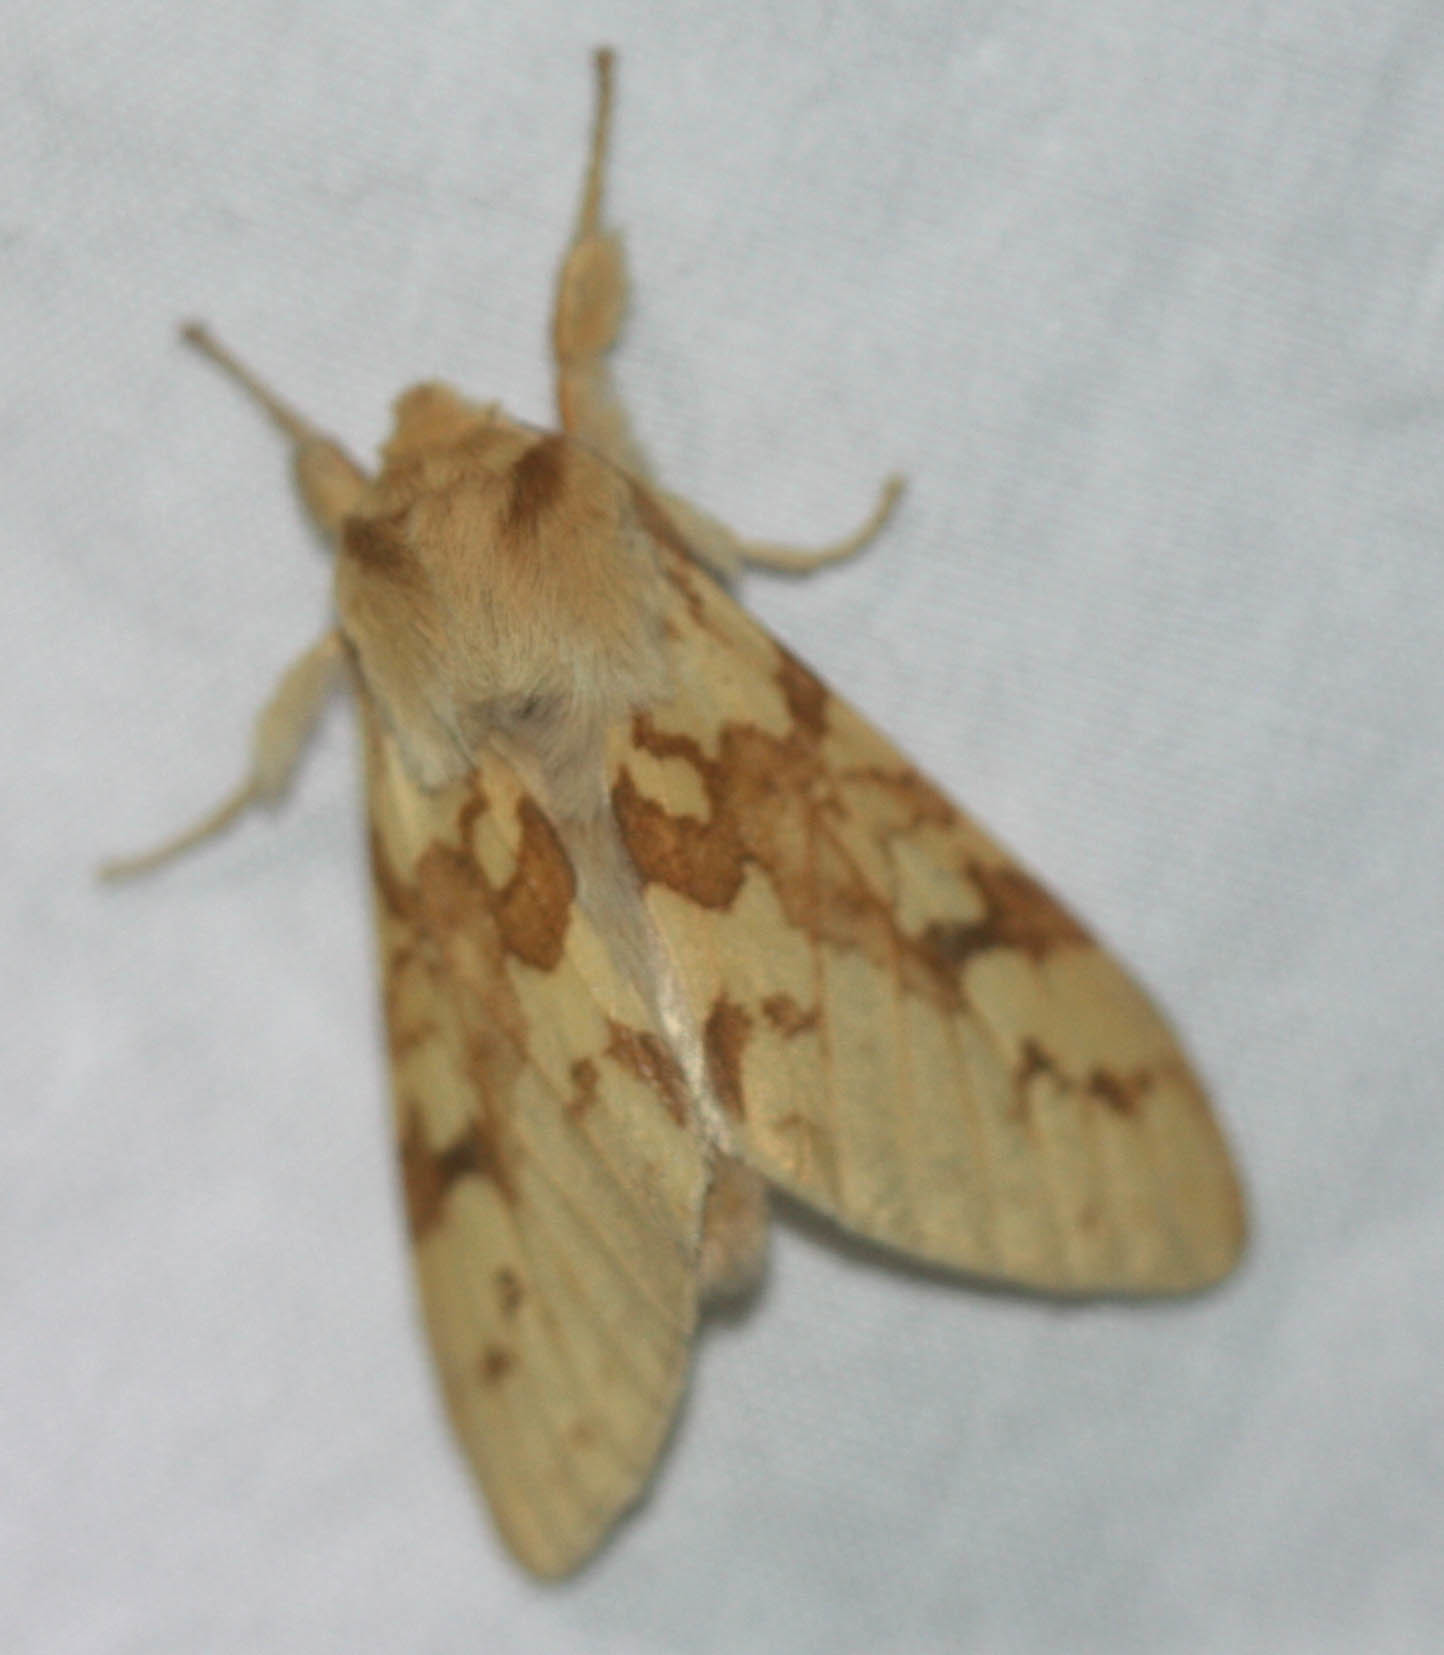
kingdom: Animalia
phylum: Arthropoda
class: Insecta
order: Lepidoptera
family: Erebidae
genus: Lophocampa
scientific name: Lophocampa maculata
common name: Spotted tussock moth
